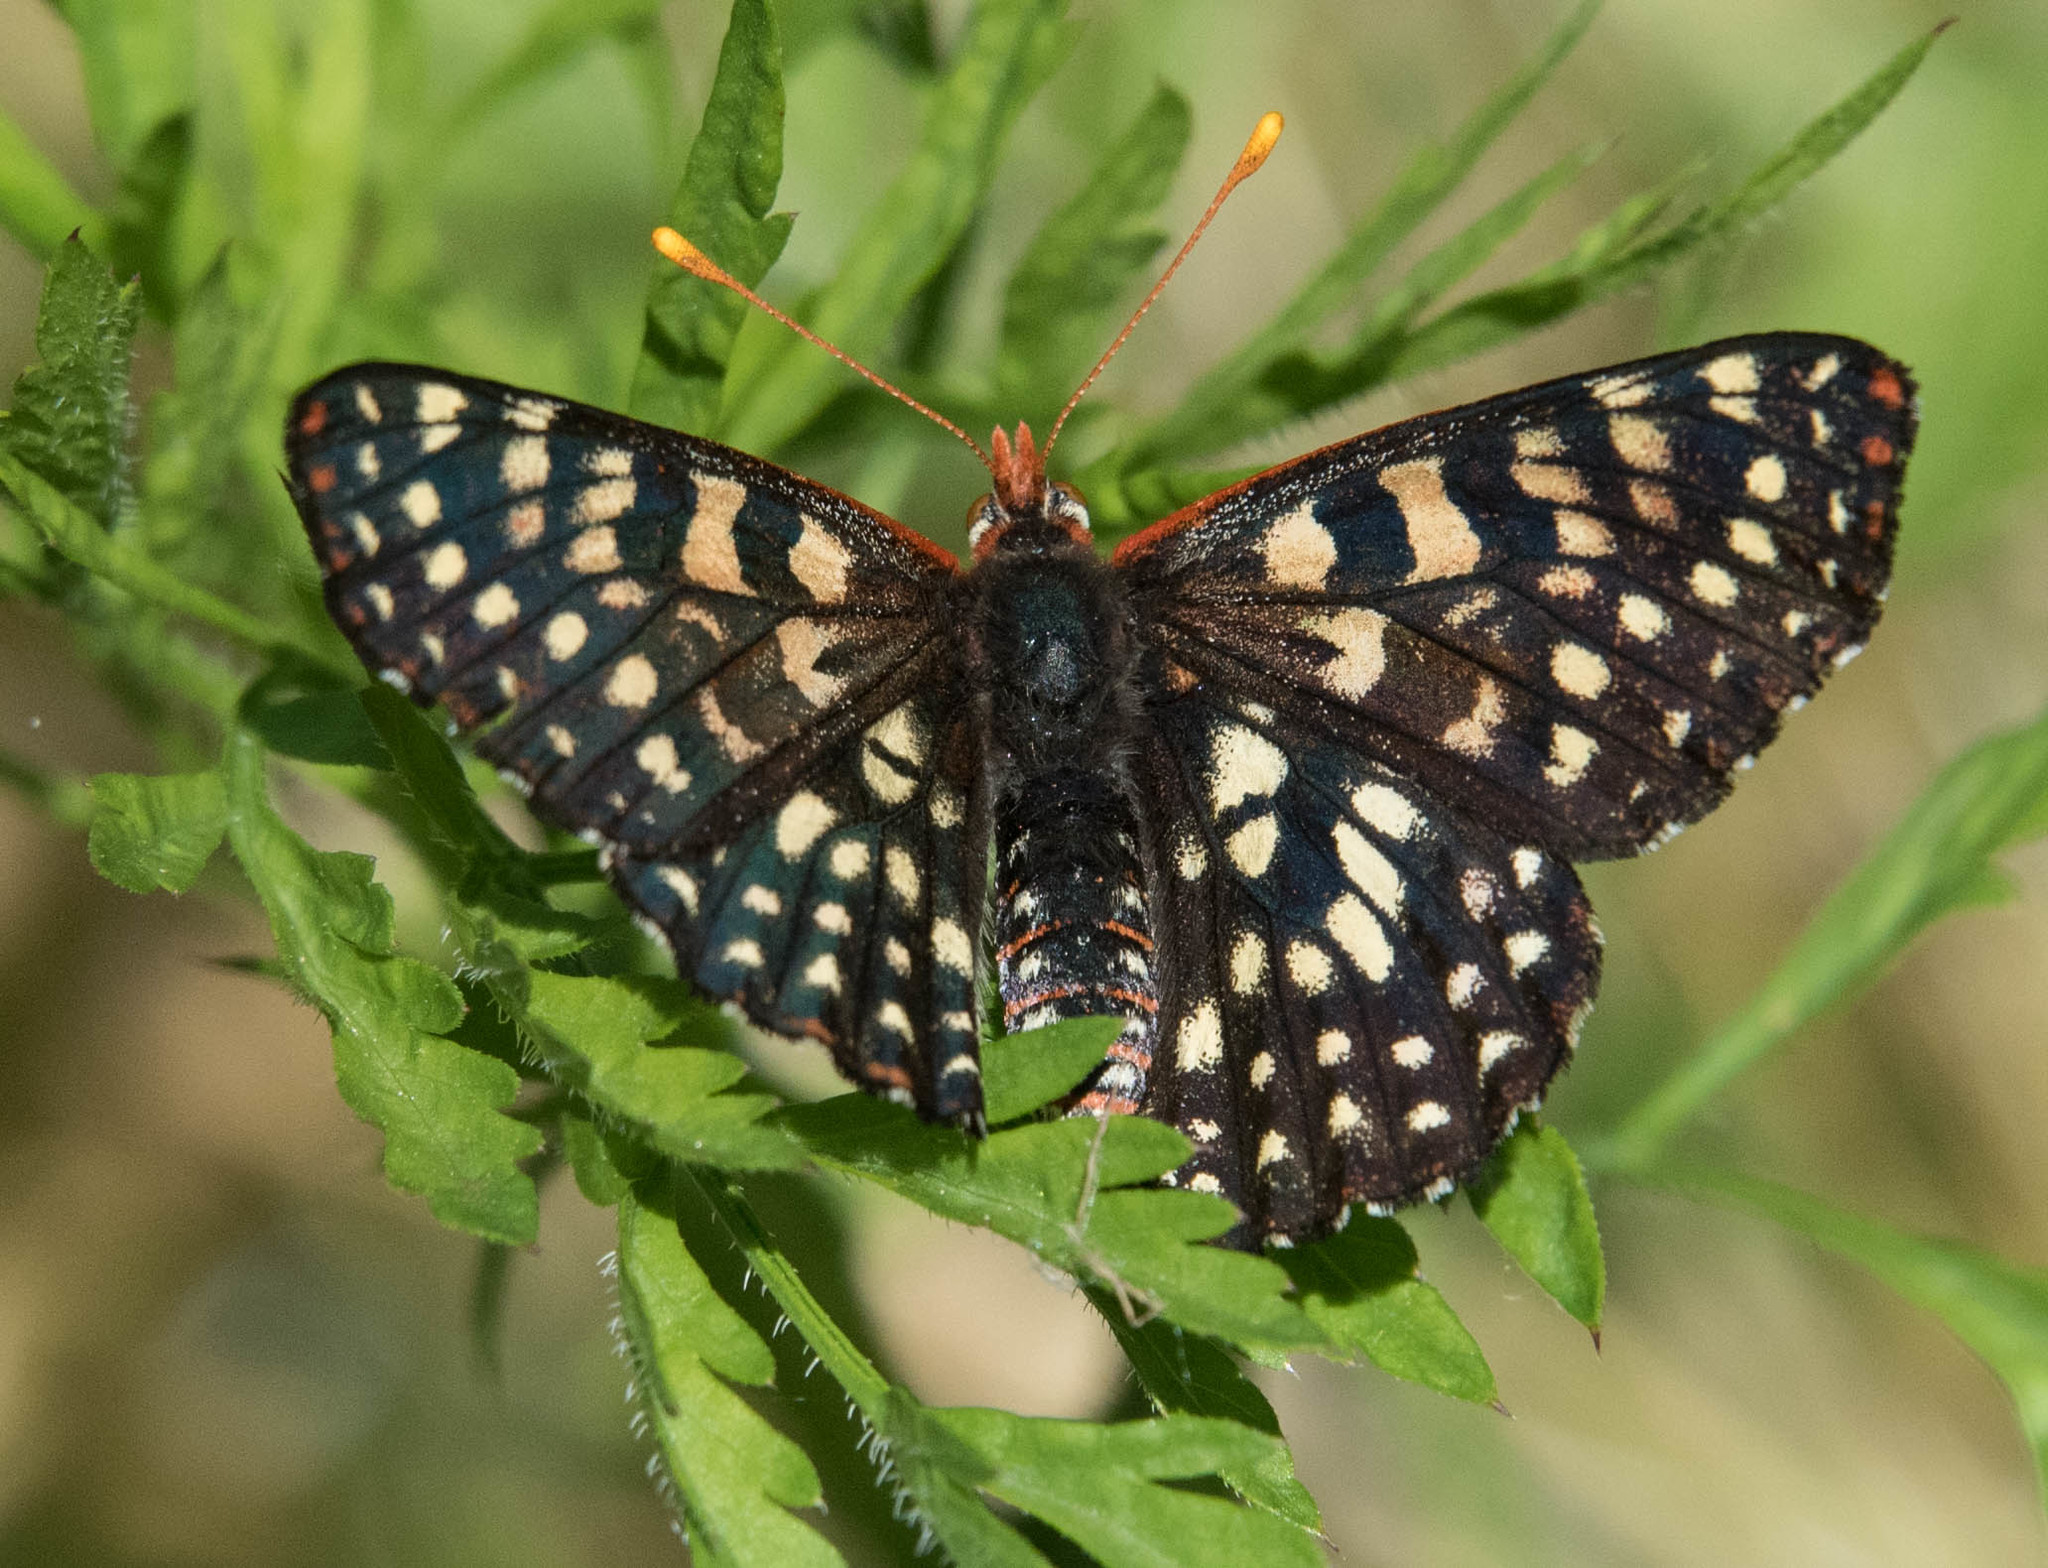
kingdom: Animalia
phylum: Arthropoda
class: Insecta
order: Lepidoptera
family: Nymphalidae
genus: Occidryas
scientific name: Occidryas chalcedona
